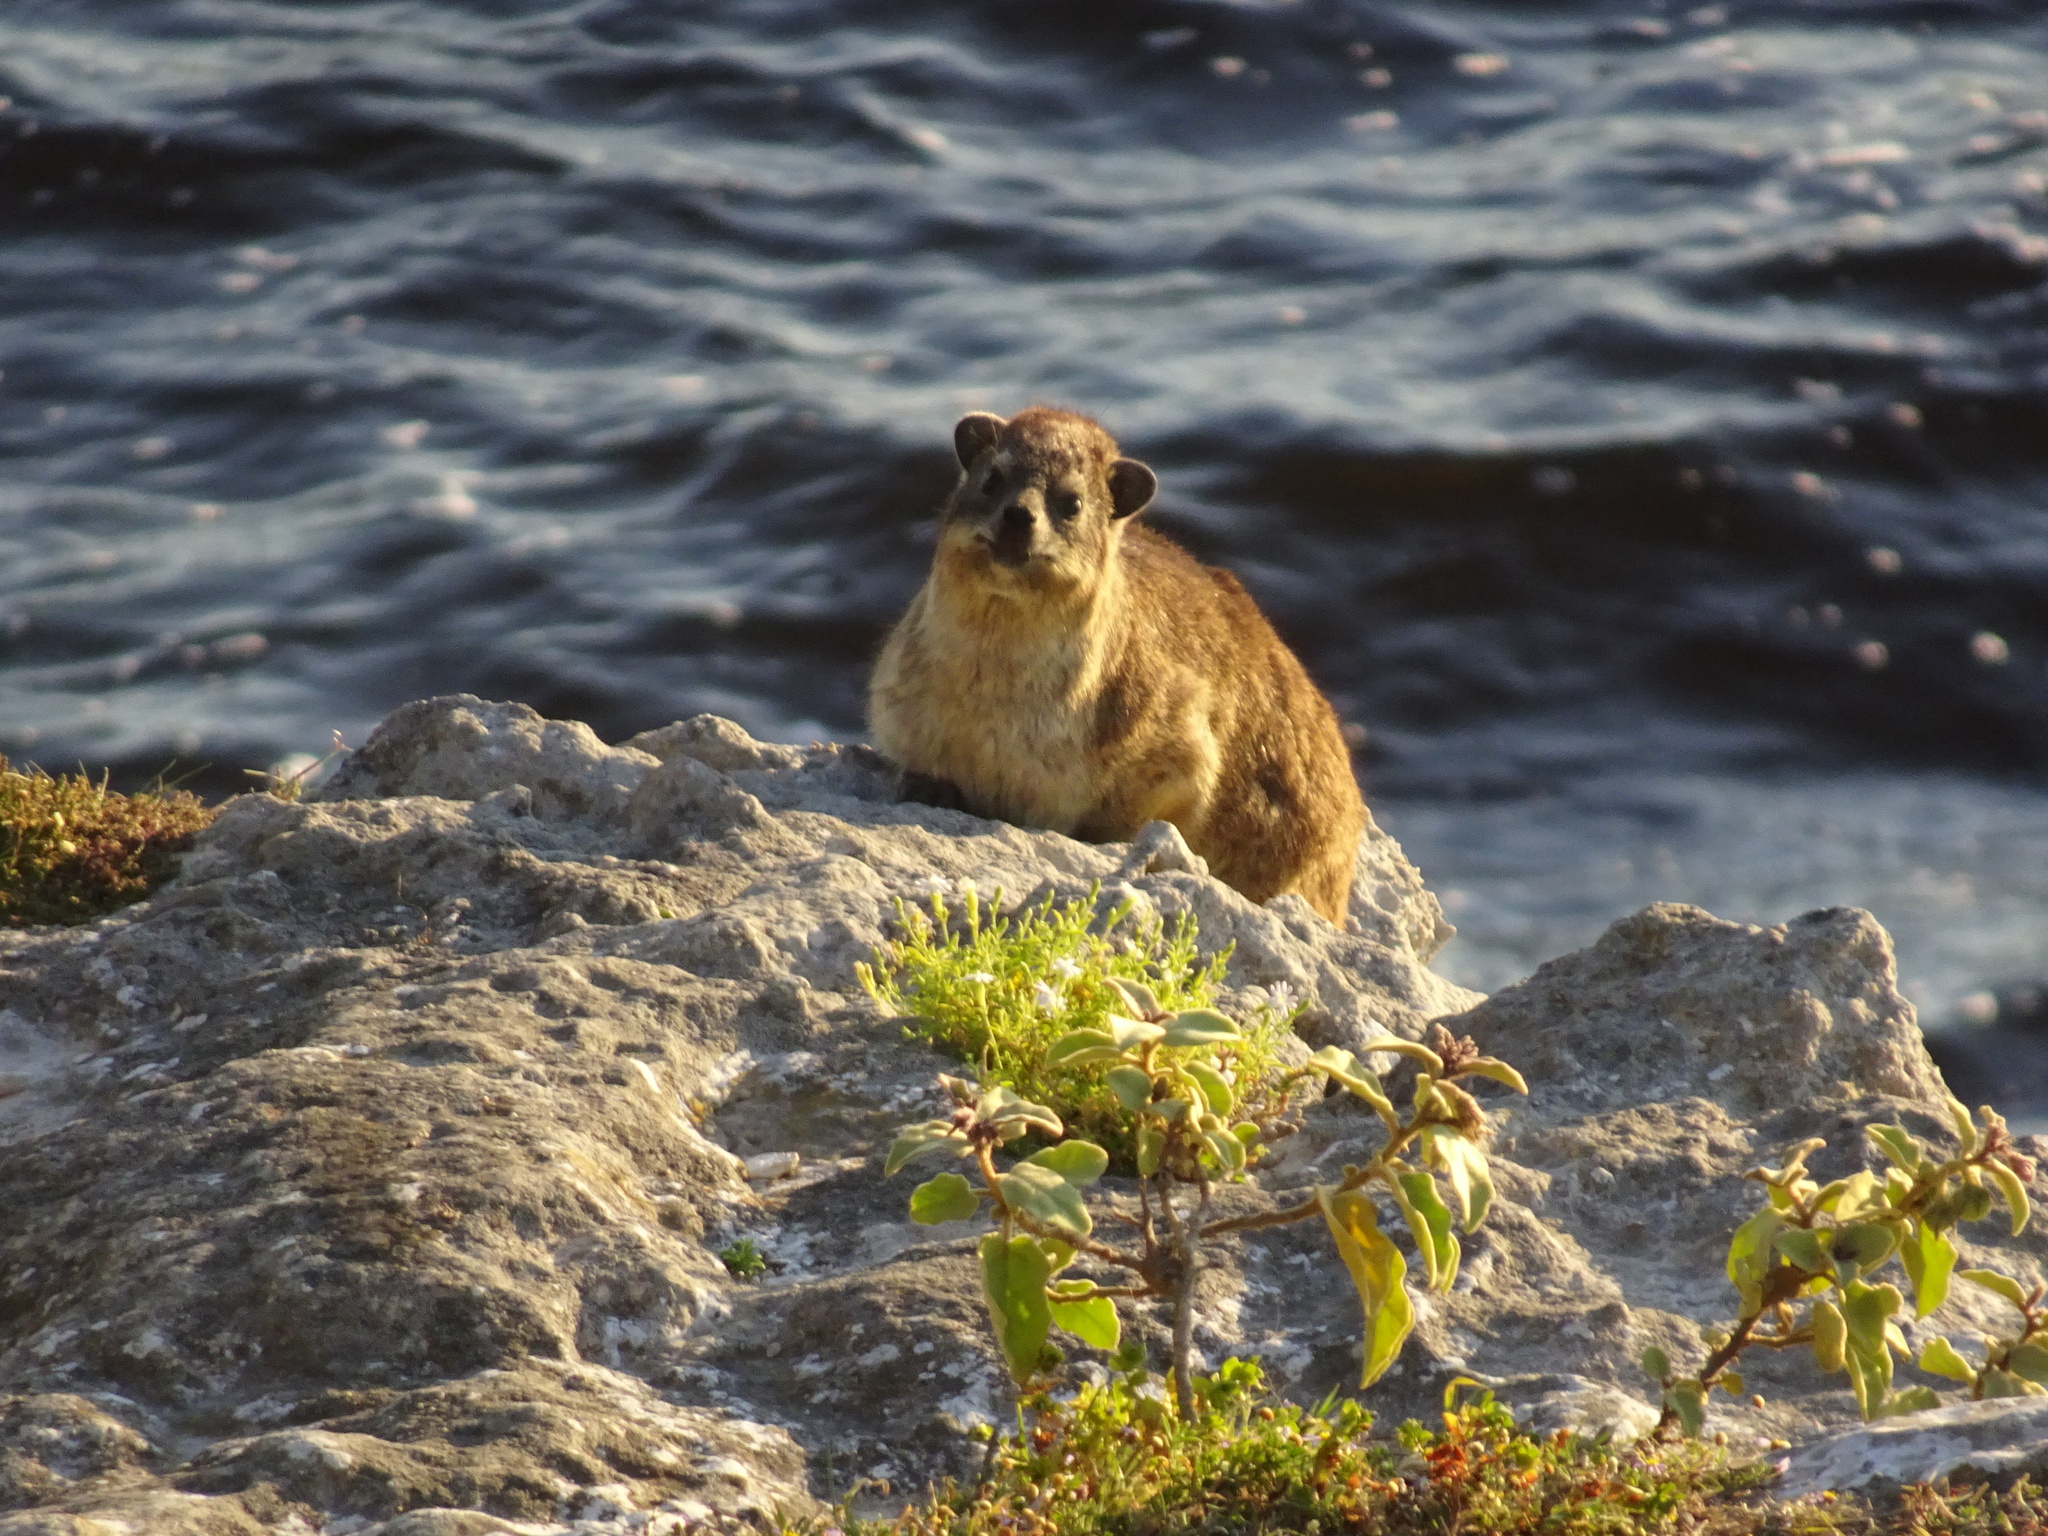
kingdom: Animalia
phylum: Chordata
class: Mammalia
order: Hyracoidea
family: Procaviidae
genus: Procavia
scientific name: Procavia capensis
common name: Rock hyrax
